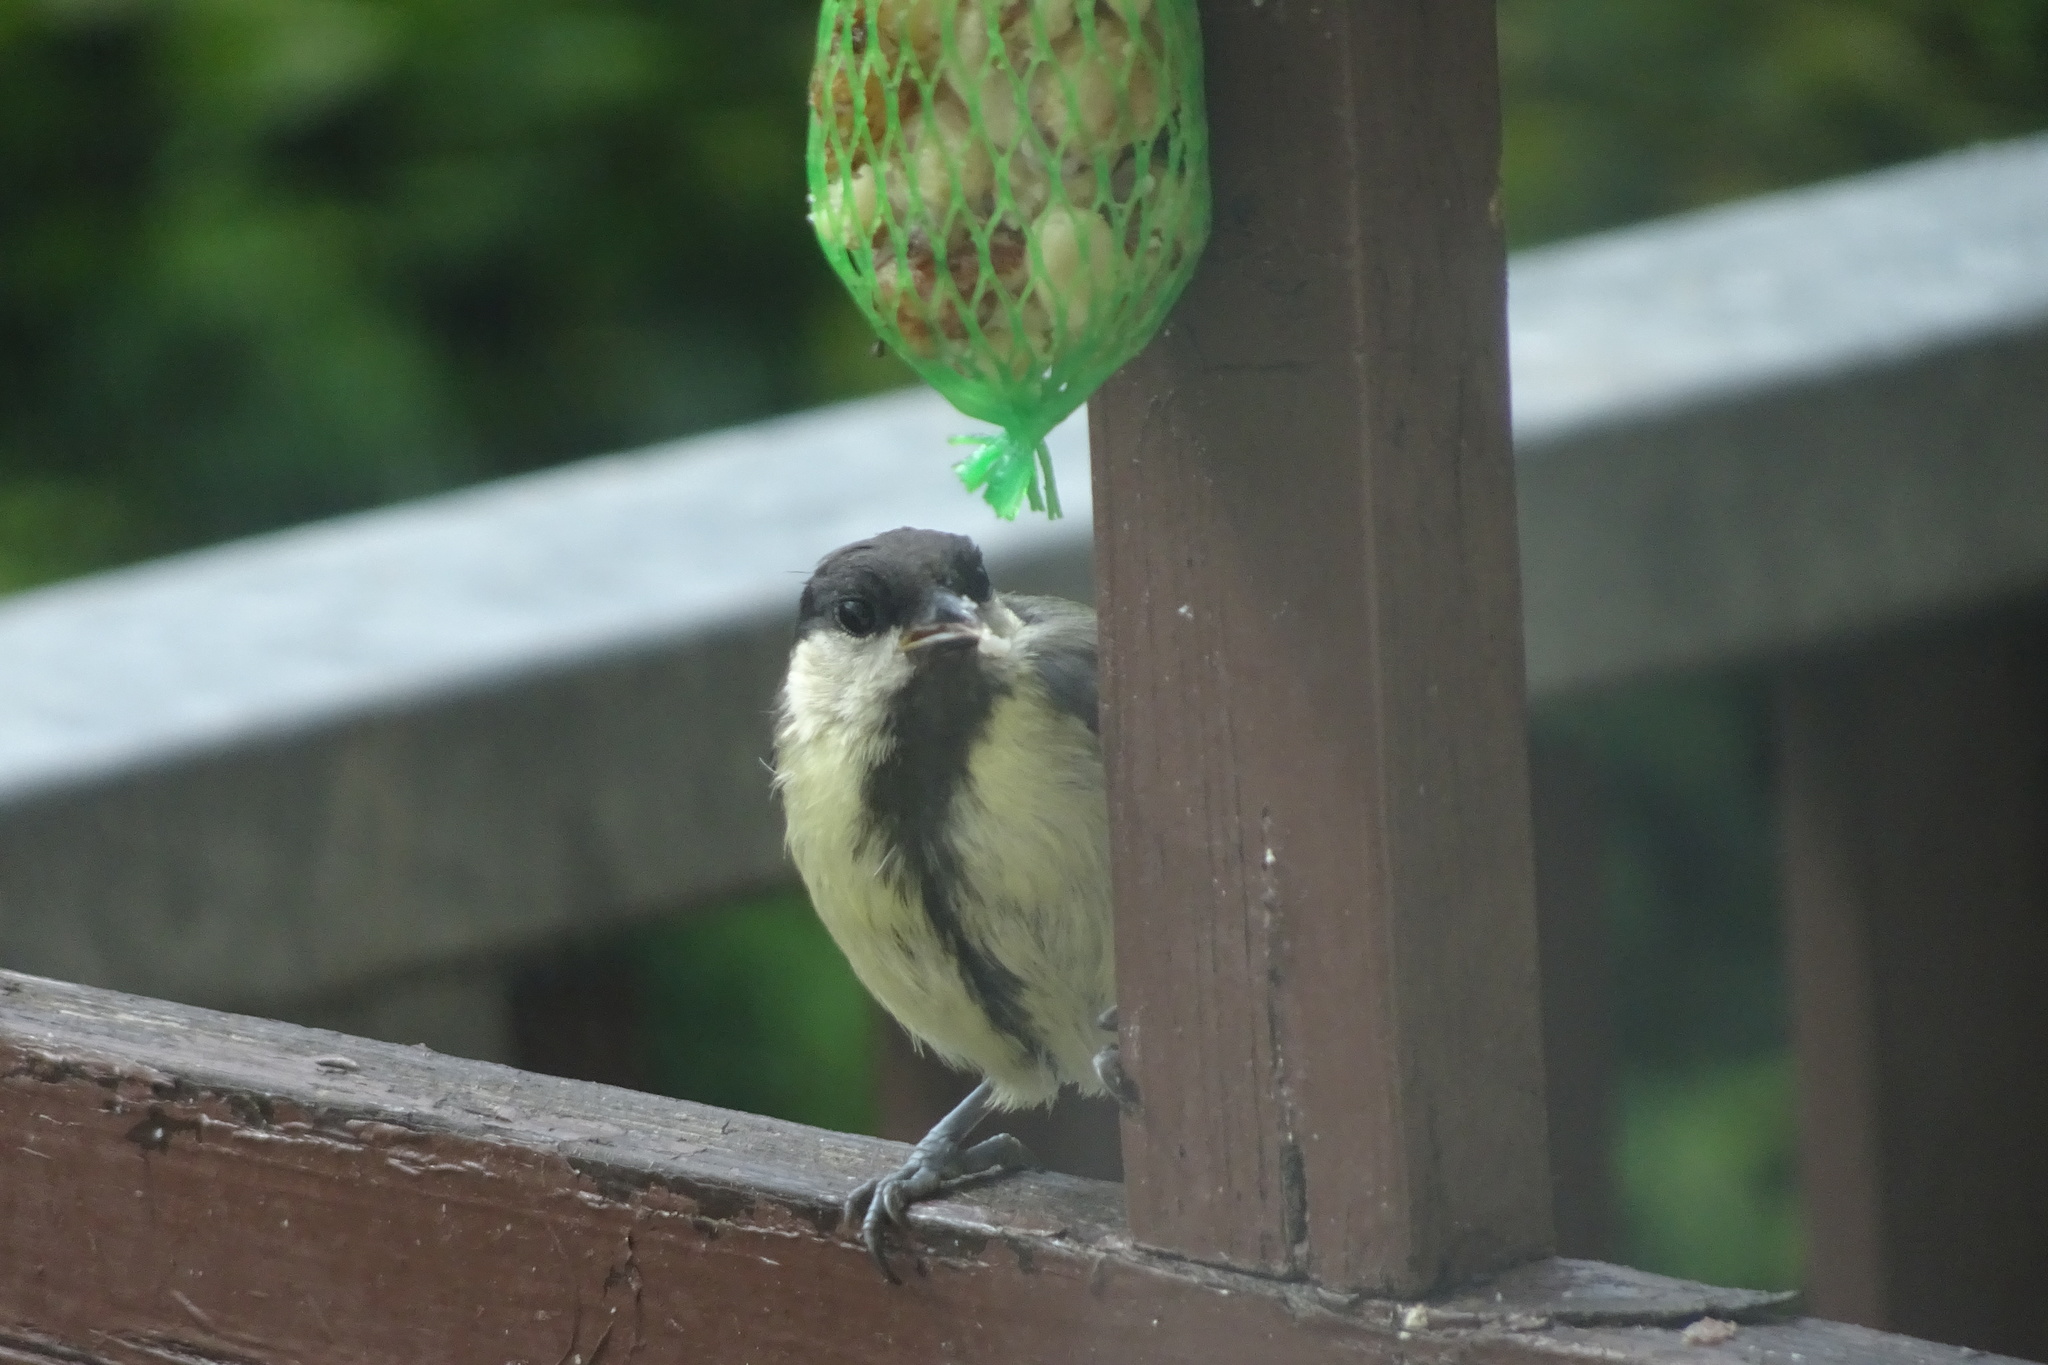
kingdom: Animalia
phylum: Chordata
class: Aves
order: Passeriformes
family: Paridae
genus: Parus
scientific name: Parus major
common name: Great tit
